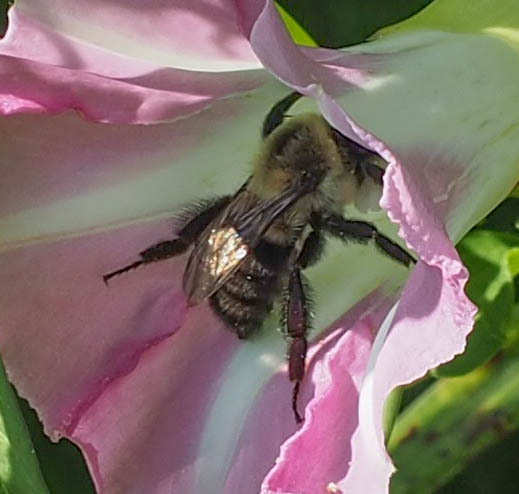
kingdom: Animalia
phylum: Arthropoda
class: Insecta
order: Hymenoptera
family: Apidae
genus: Bombus
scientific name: Bombus impatiens
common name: Common eastern bumble bee
